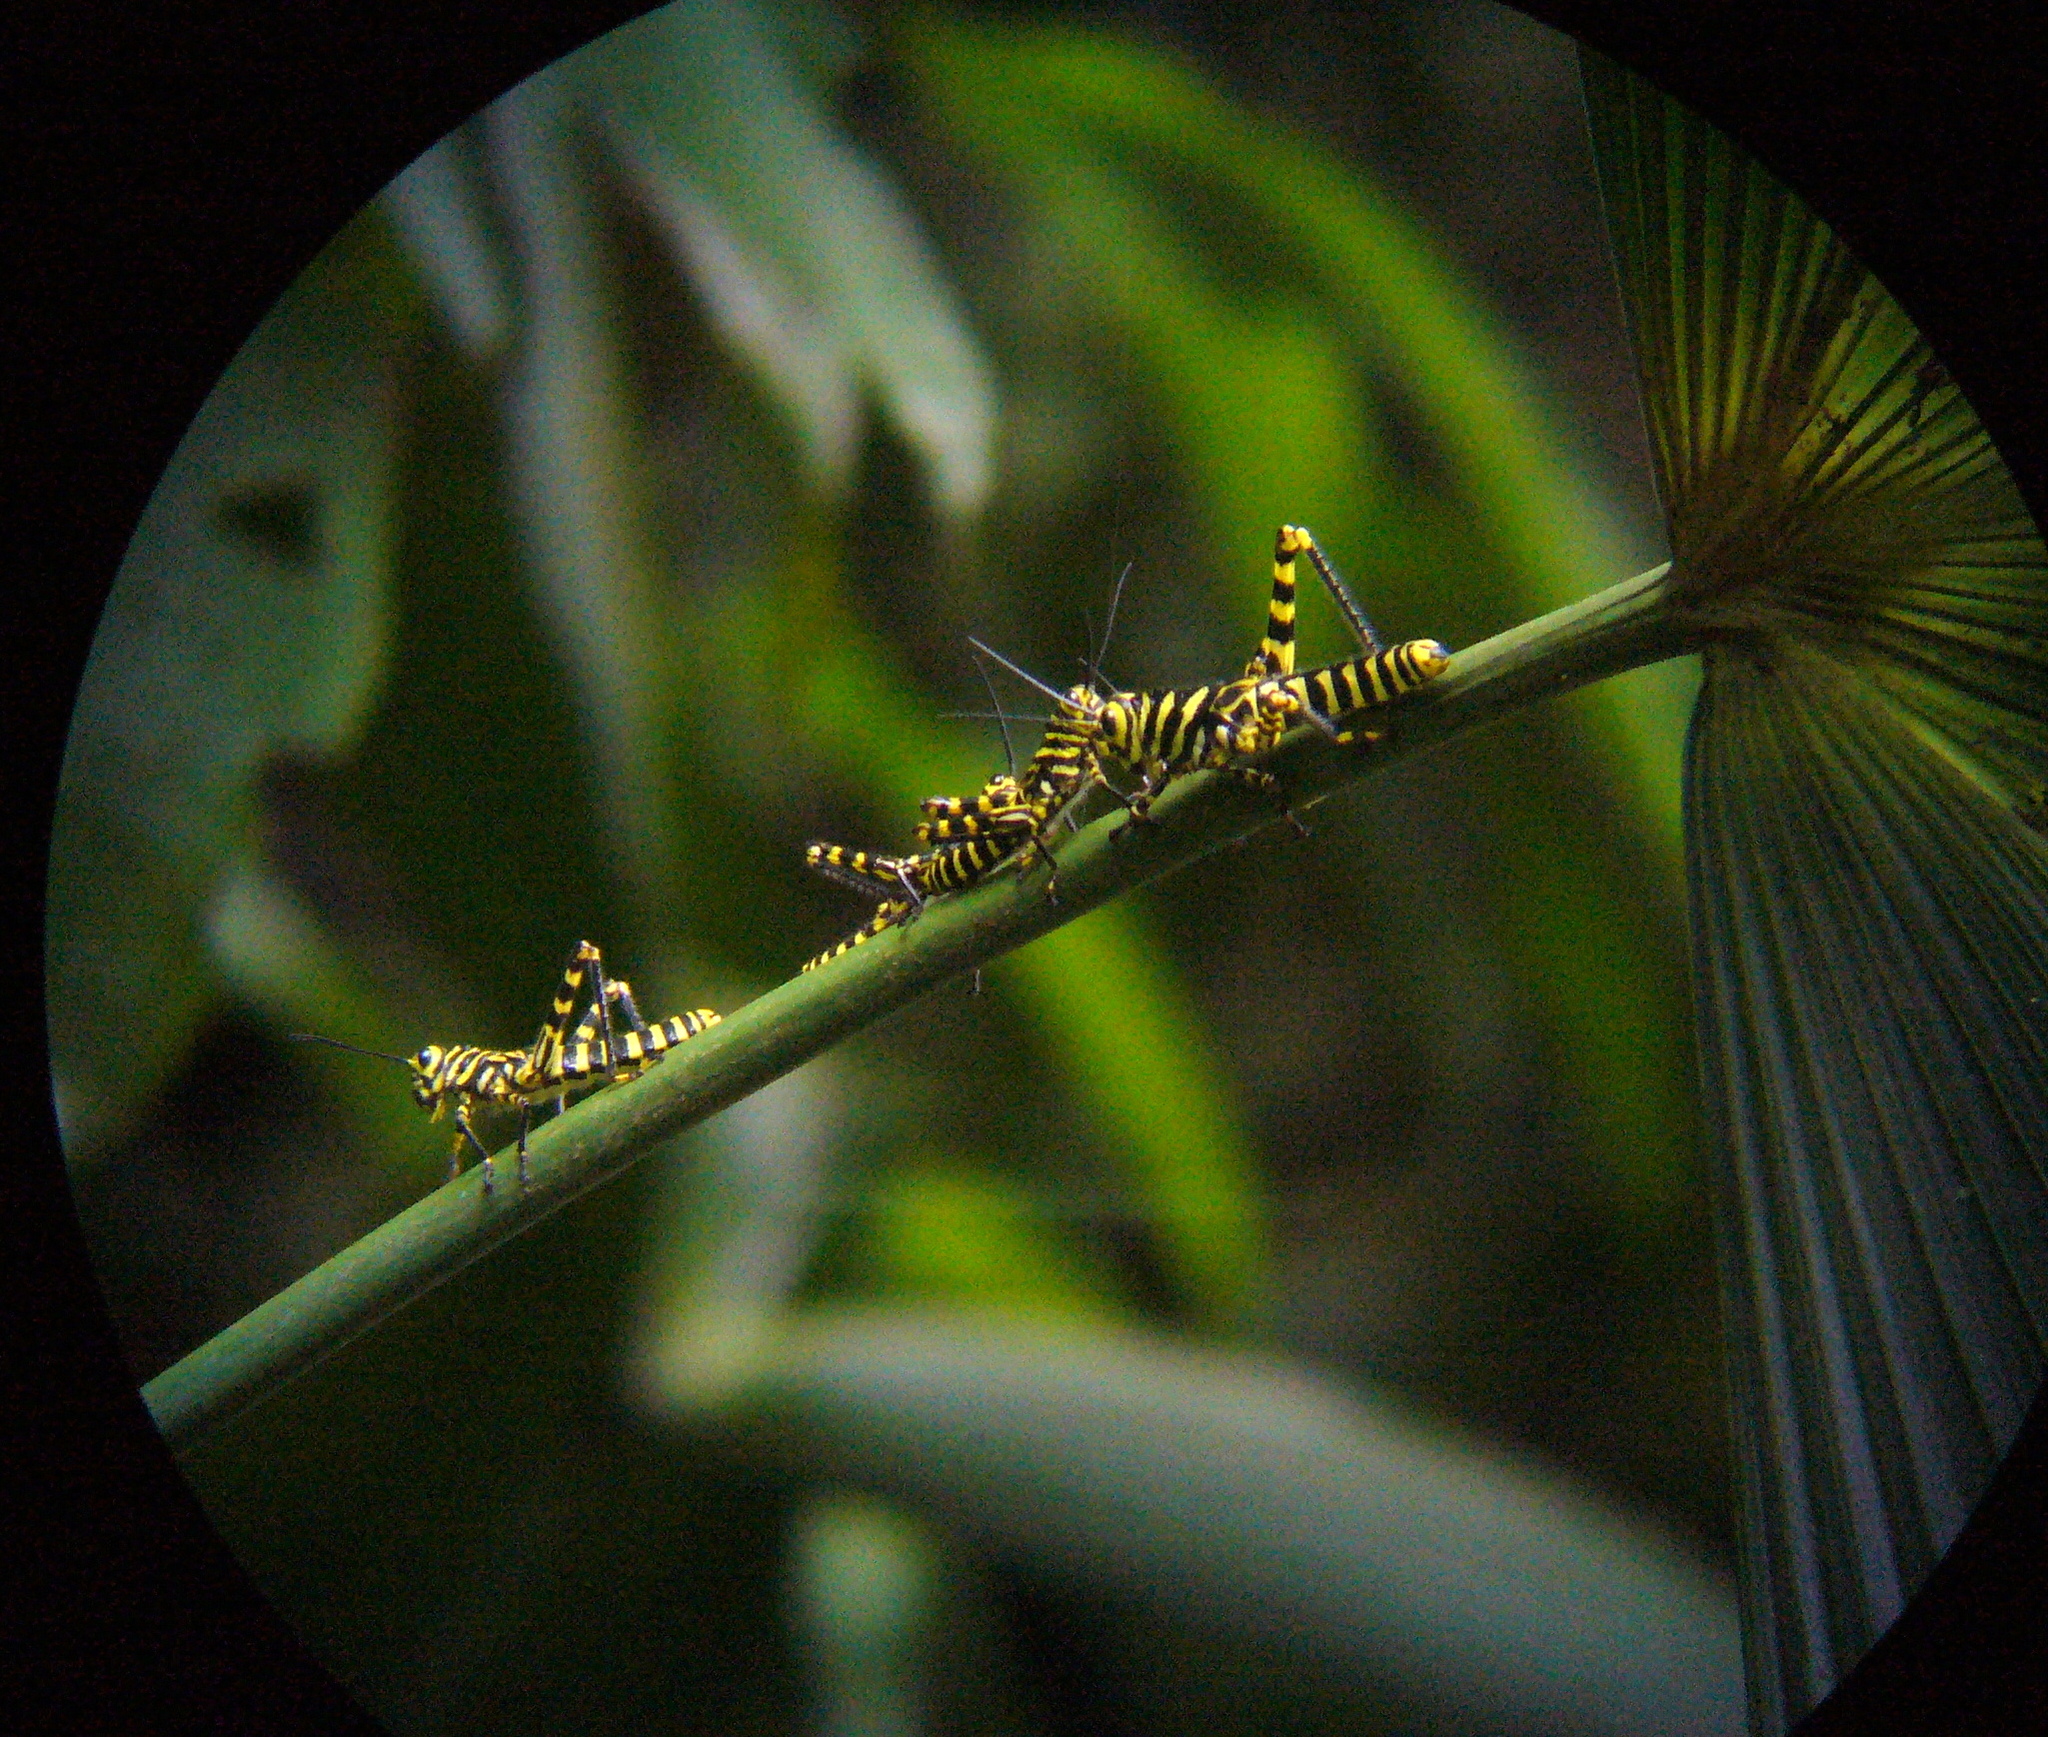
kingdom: Animalia
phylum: Arthropoda
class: Insecta
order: Orthoptera
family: Romaleidae
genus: Tropidacris
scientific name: Tropidacris cristata
